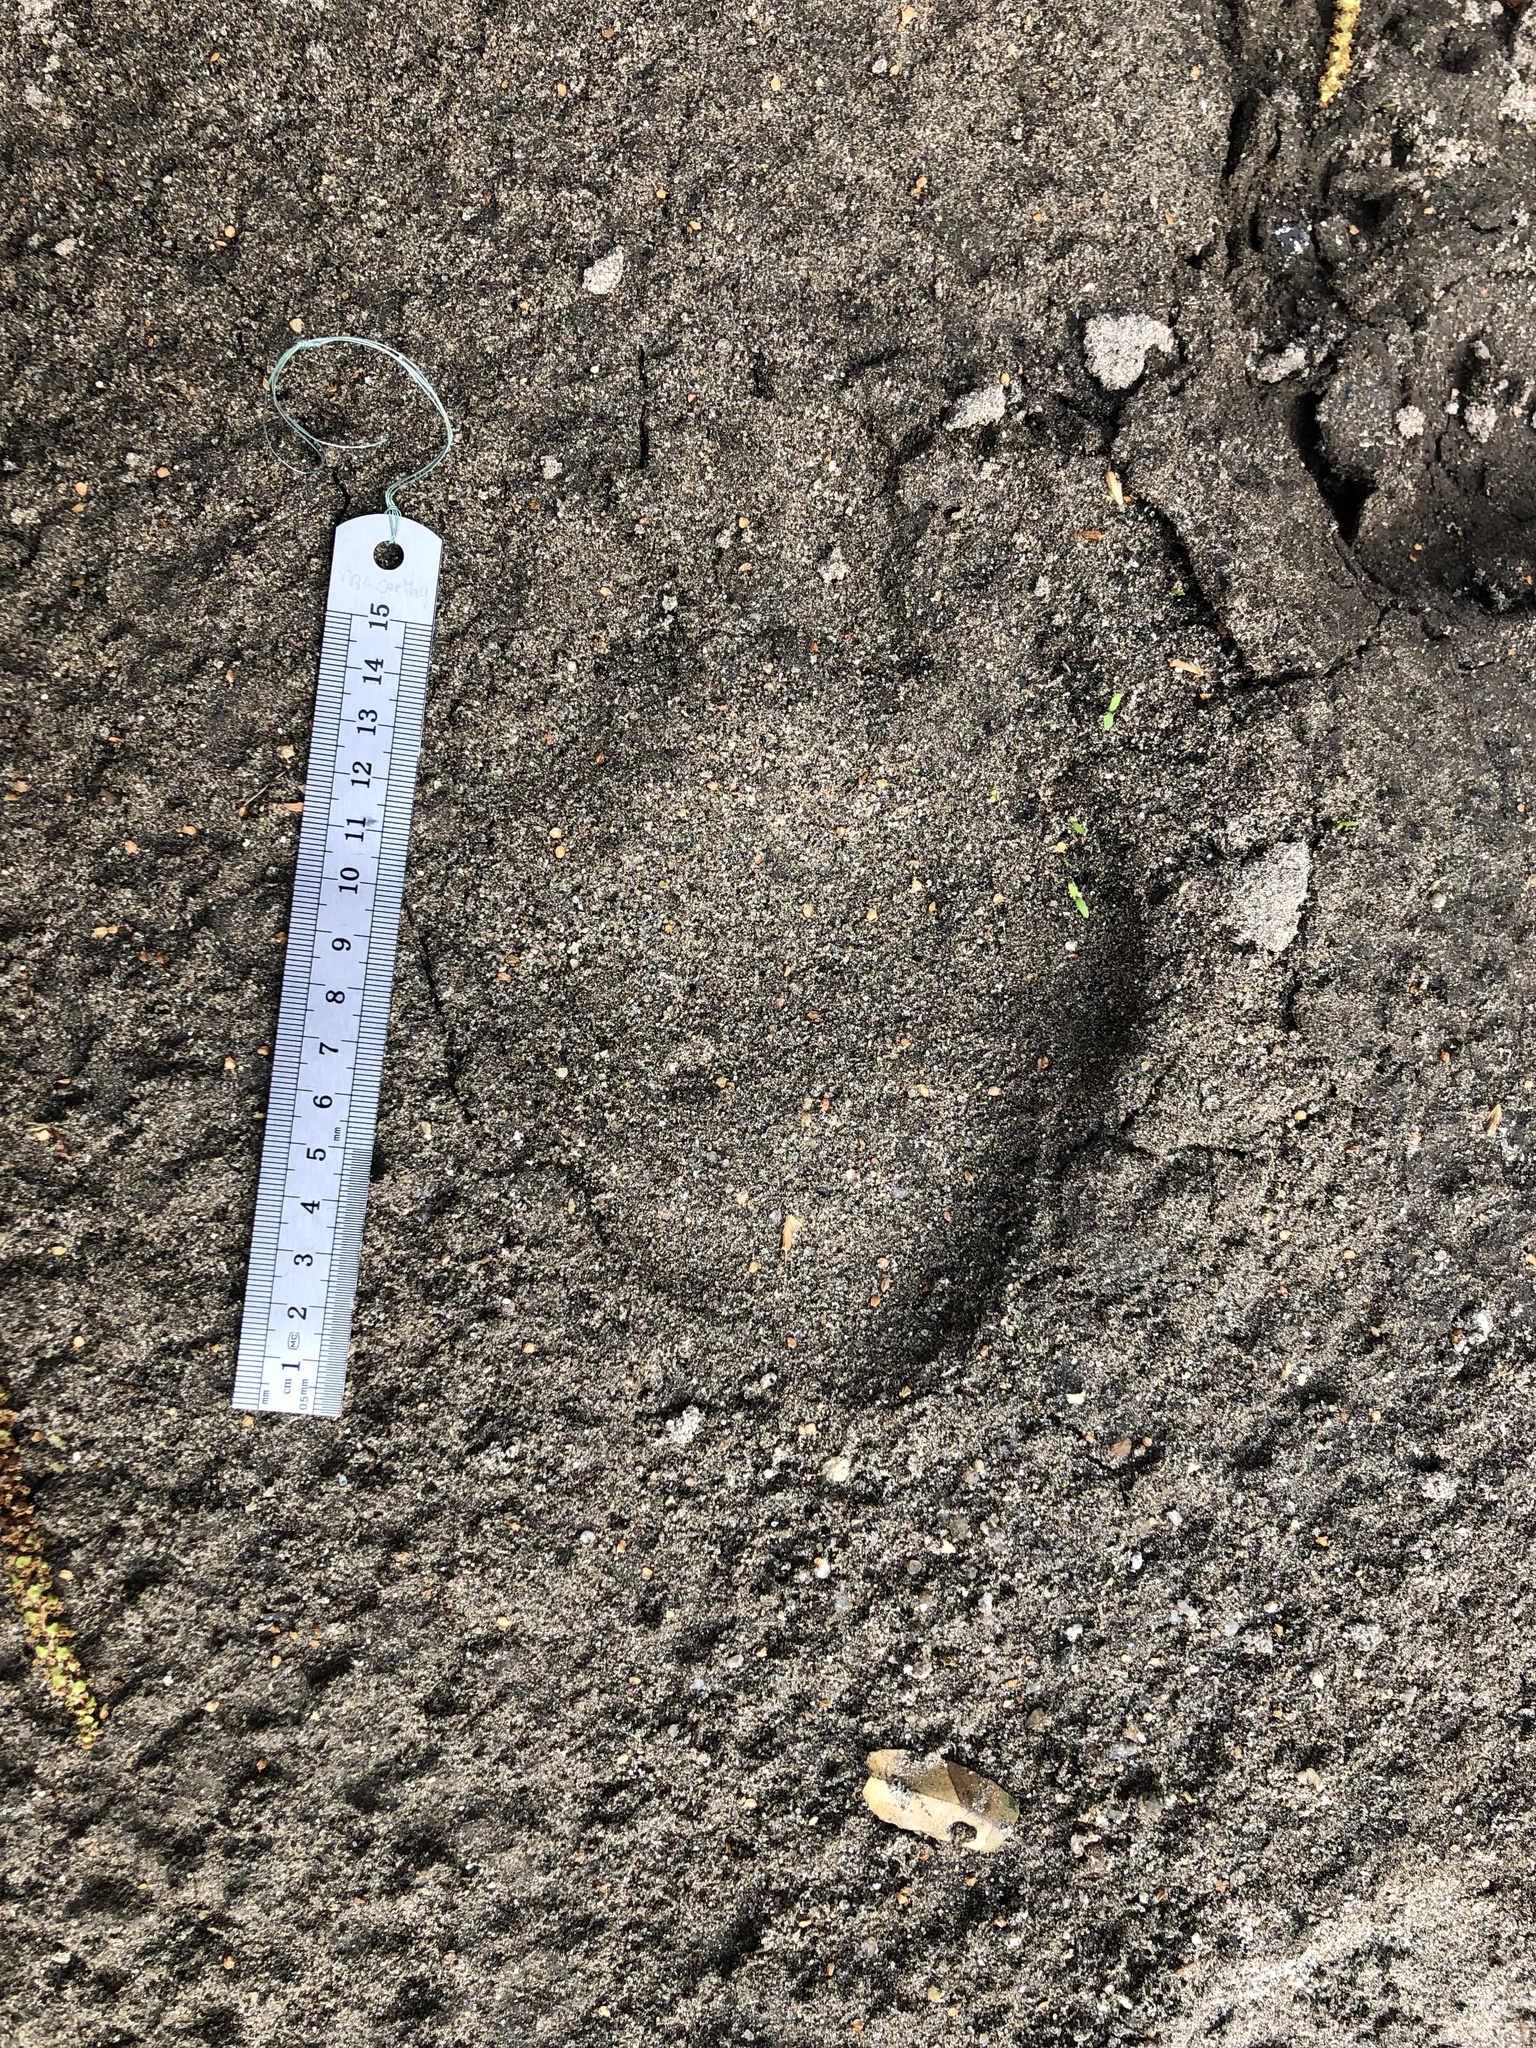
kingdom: Animalia
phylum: Chordata
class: Mammalia
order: Carnivora
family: Ursidae
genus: Ursus
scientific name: Ursus americanus
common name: American black bear
